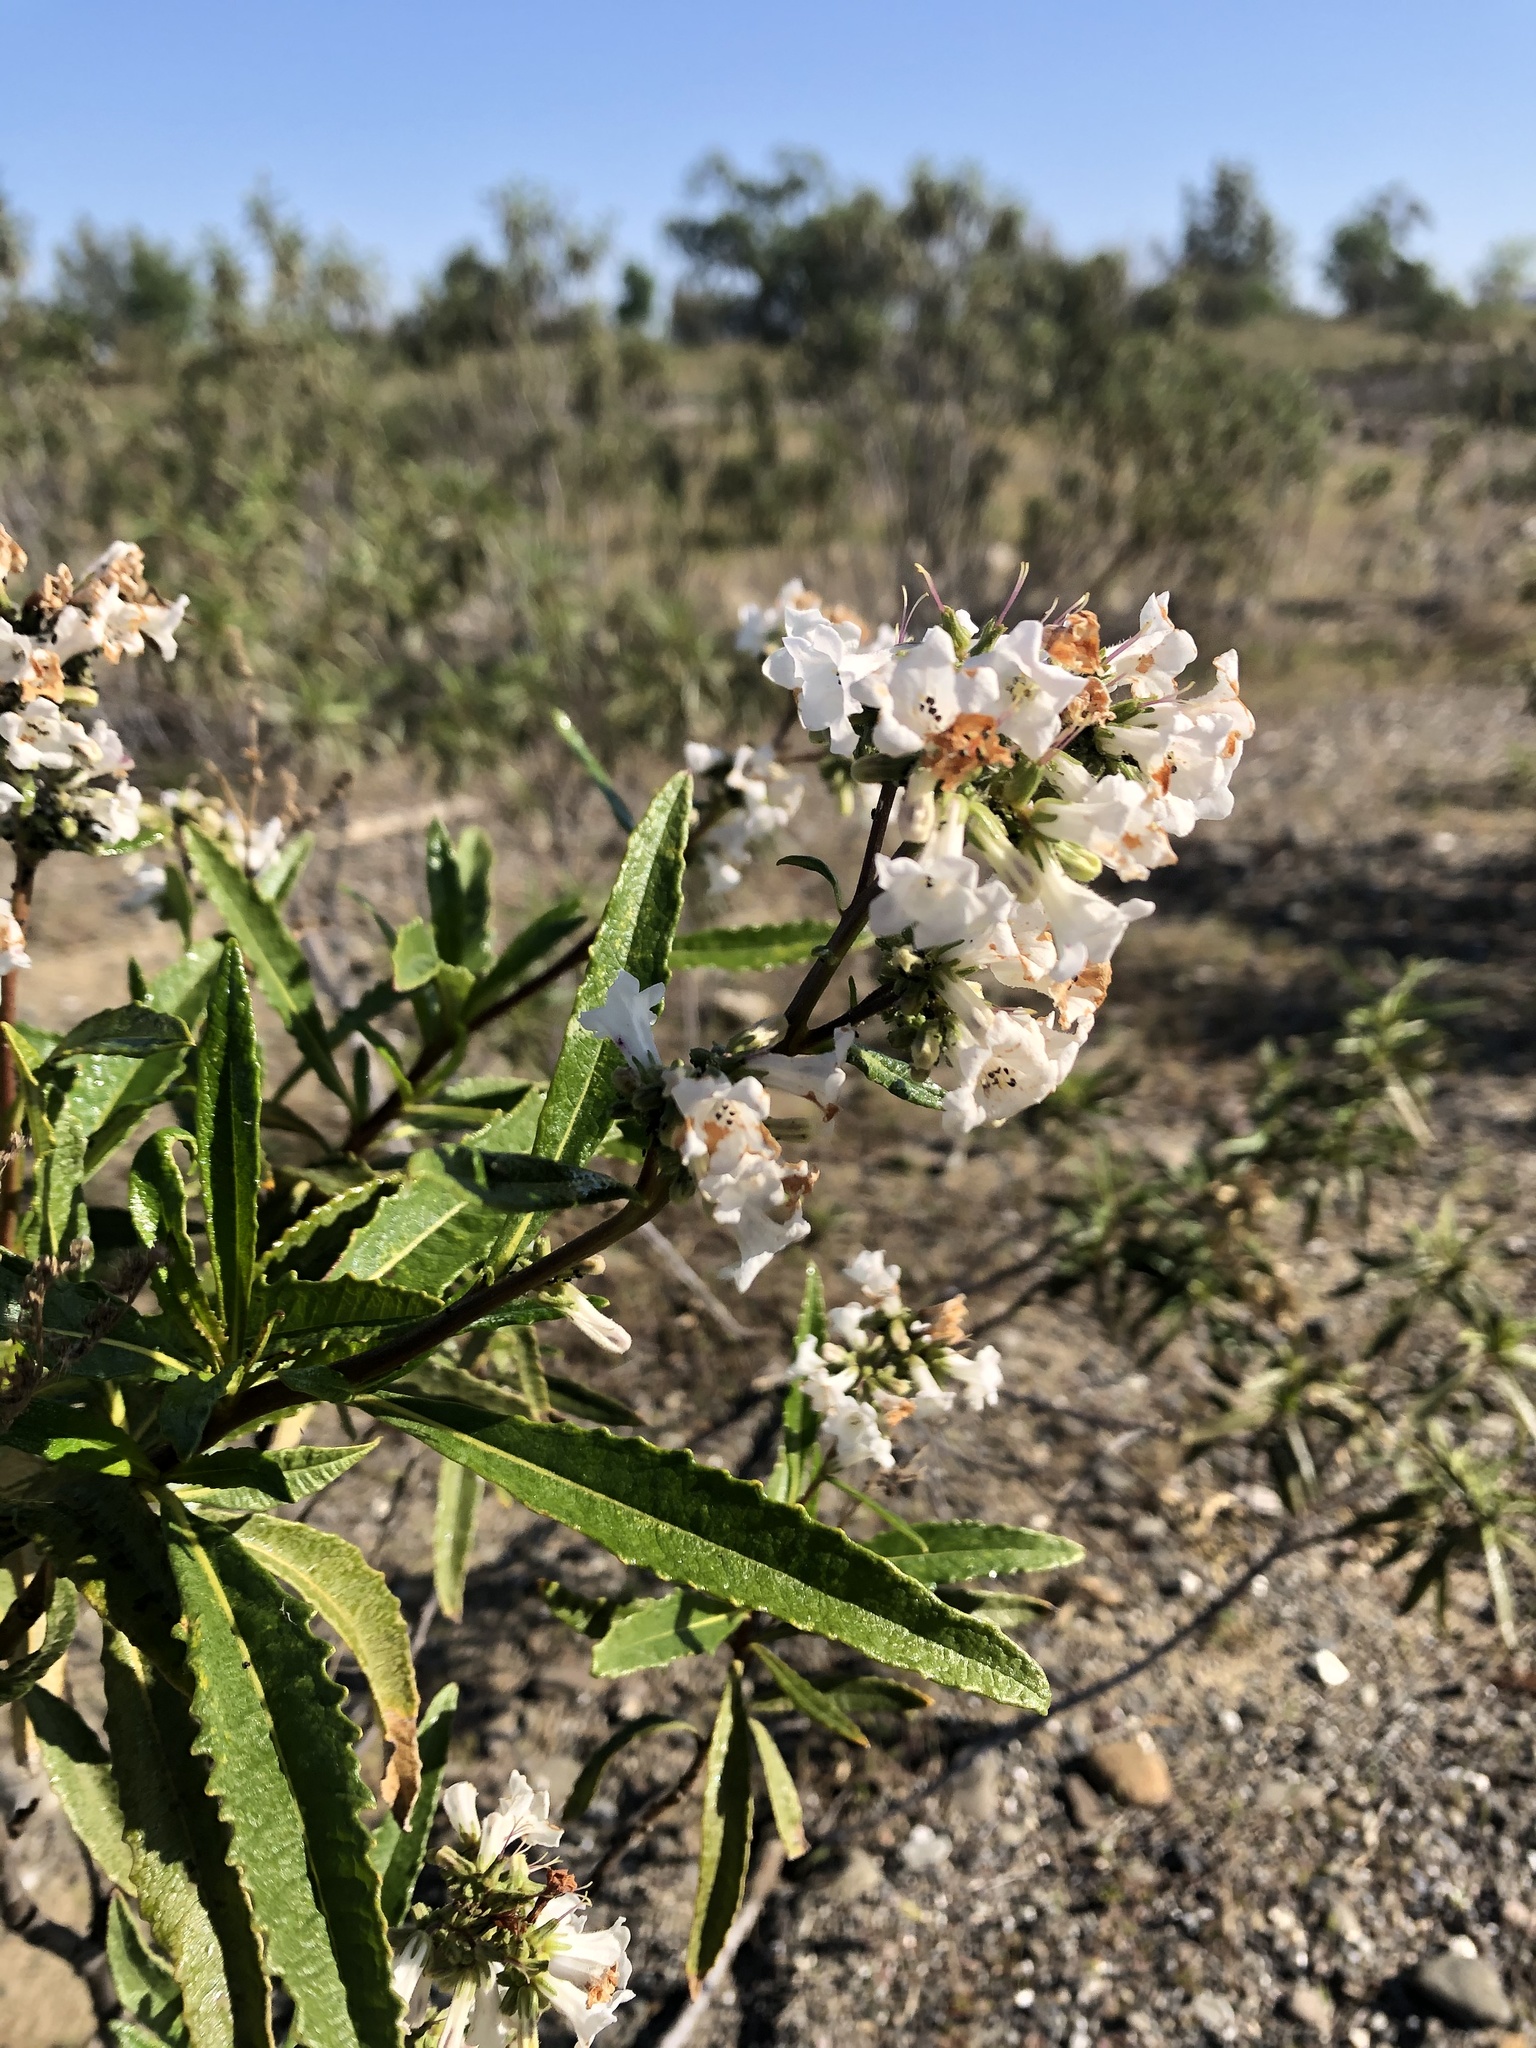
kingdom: Plantae
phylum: Tracheophyta
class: Magnoliopsida
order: Boraginales
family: Namaceae
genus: Eriodictyon
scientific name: Eriodictyon californicum
